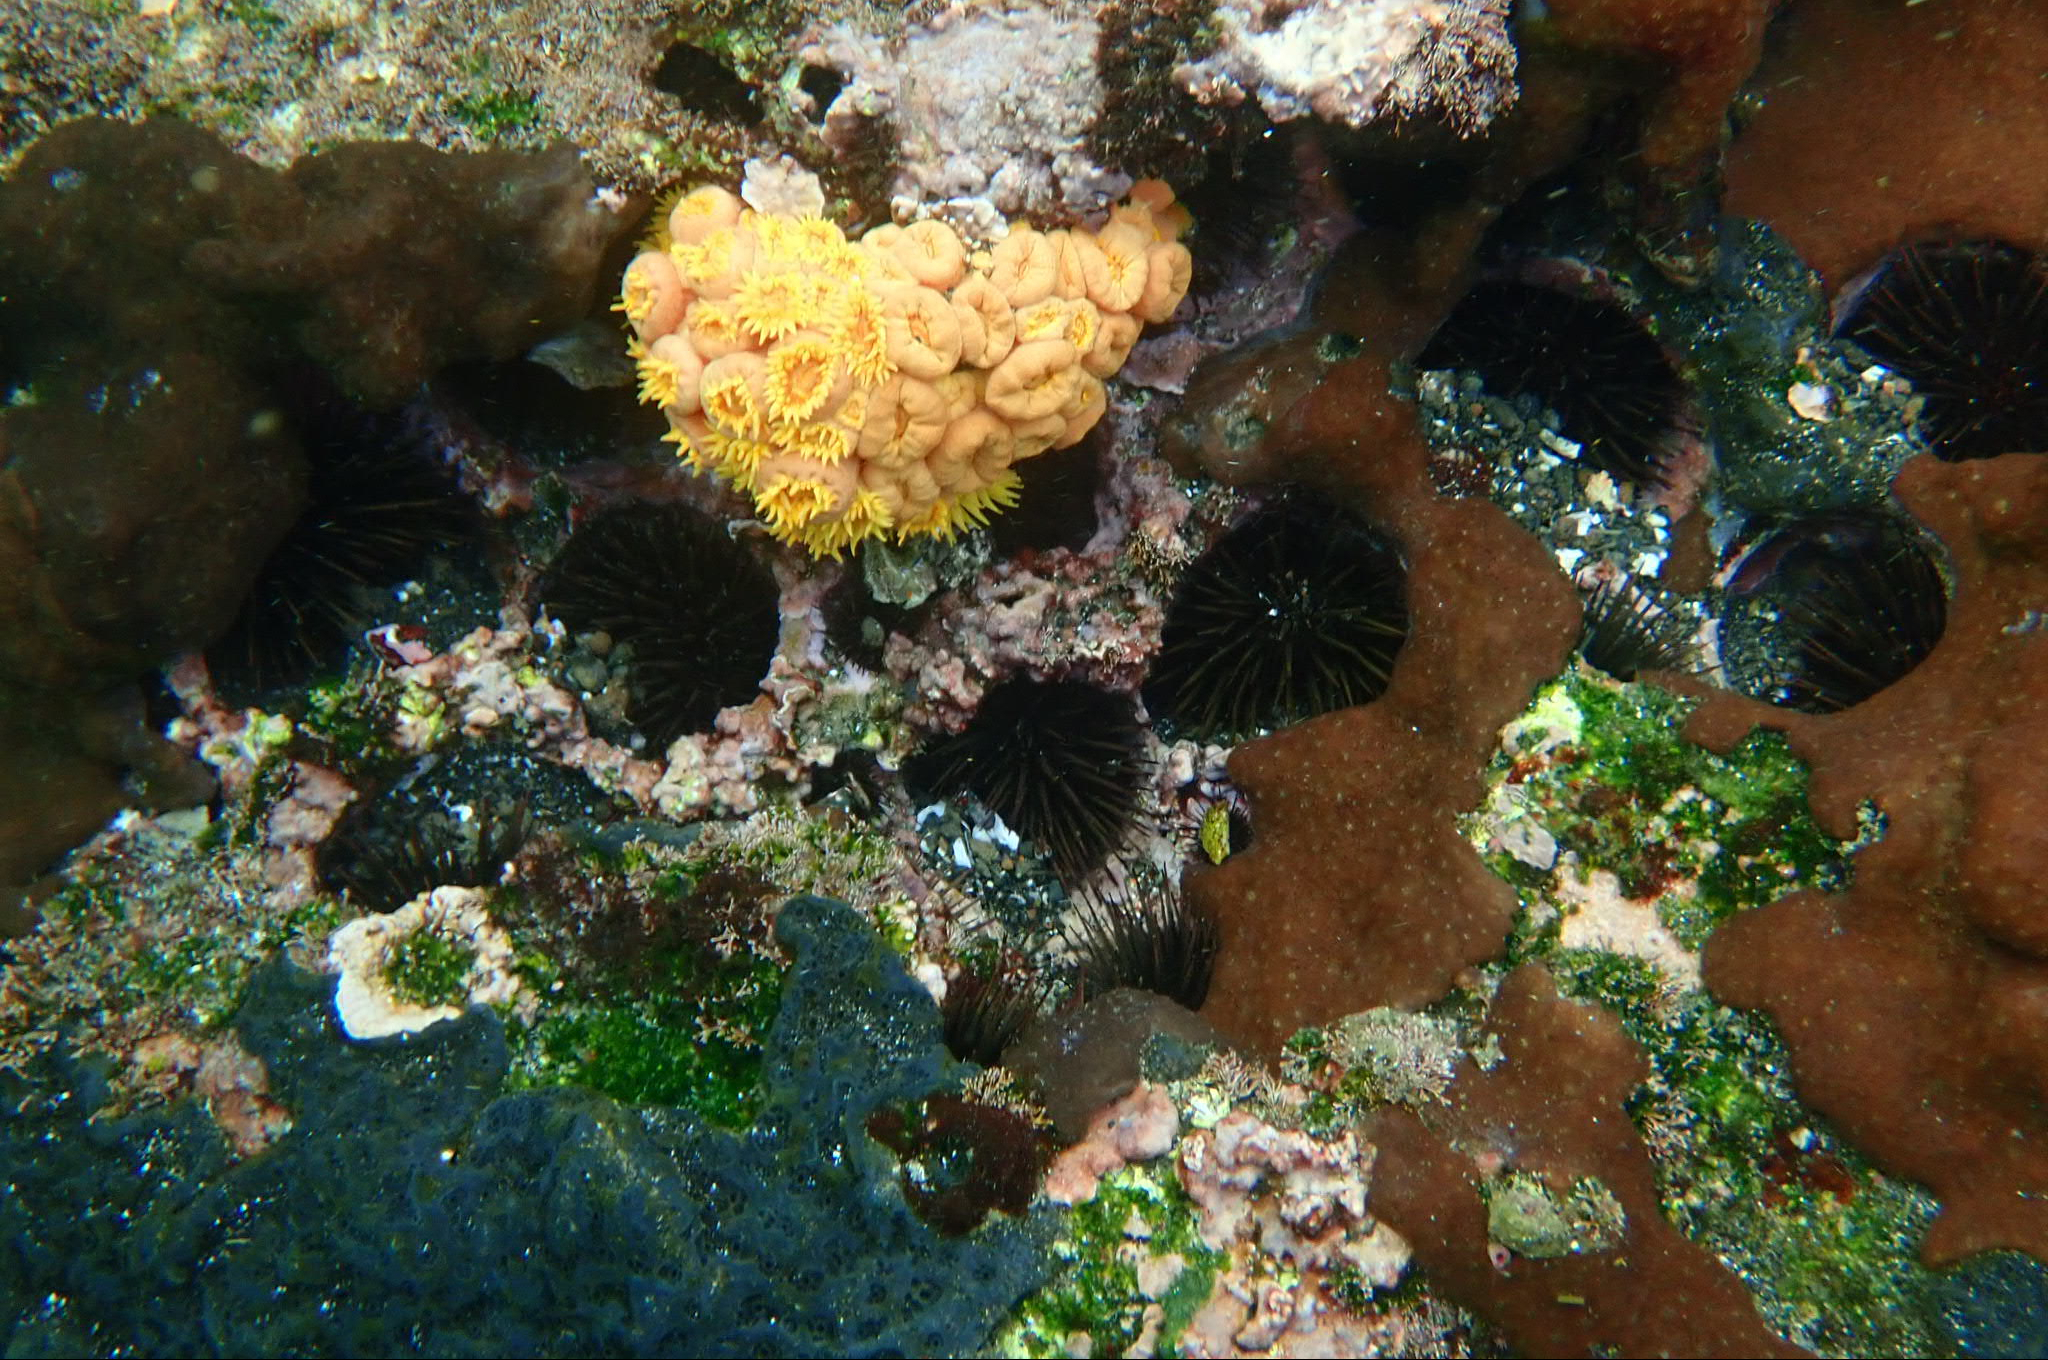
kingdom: Animalia
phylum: Cnidaria
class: Anthozoa
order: Scleractinia
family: Dendrophylliidae
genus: Tubastraea
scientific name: Tubastraea coccinea
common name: Orange cup coral
